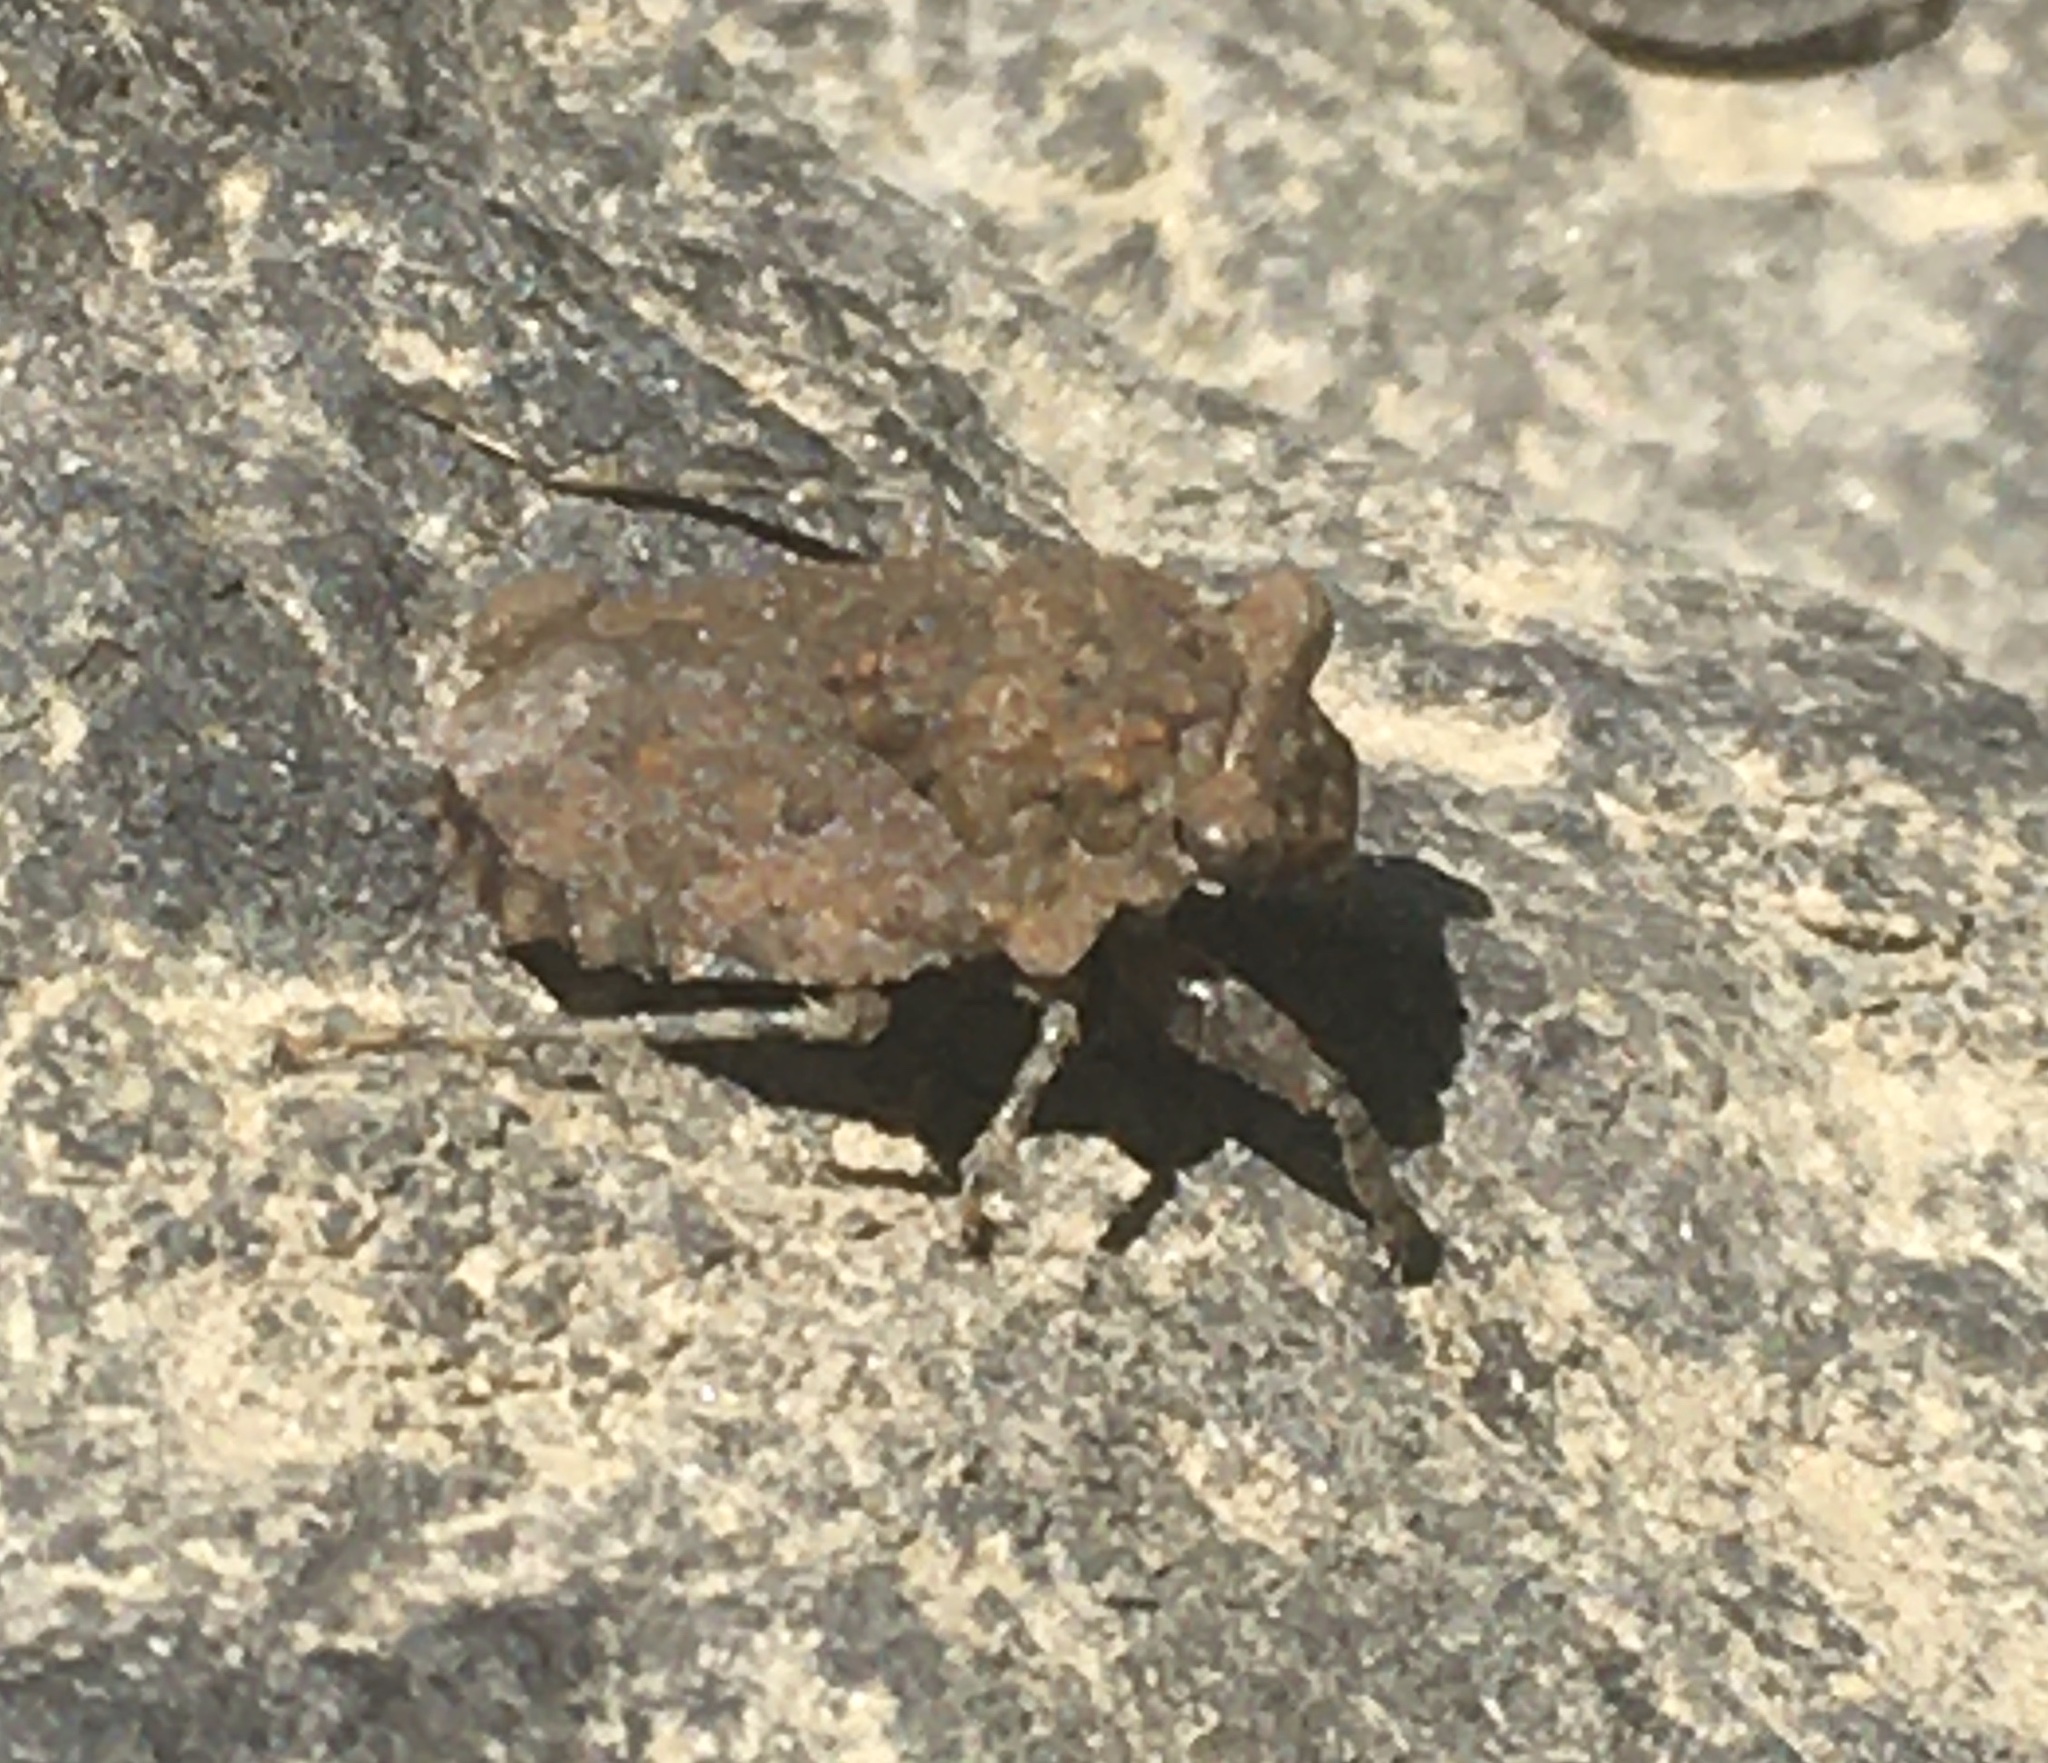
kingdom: Animalia
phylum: Arthropoda
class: Insecta
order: Hemiptera
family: Gelastocoridae
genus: Gelastocoris
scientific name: Gelastocoris oculatus
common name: Toad bug
